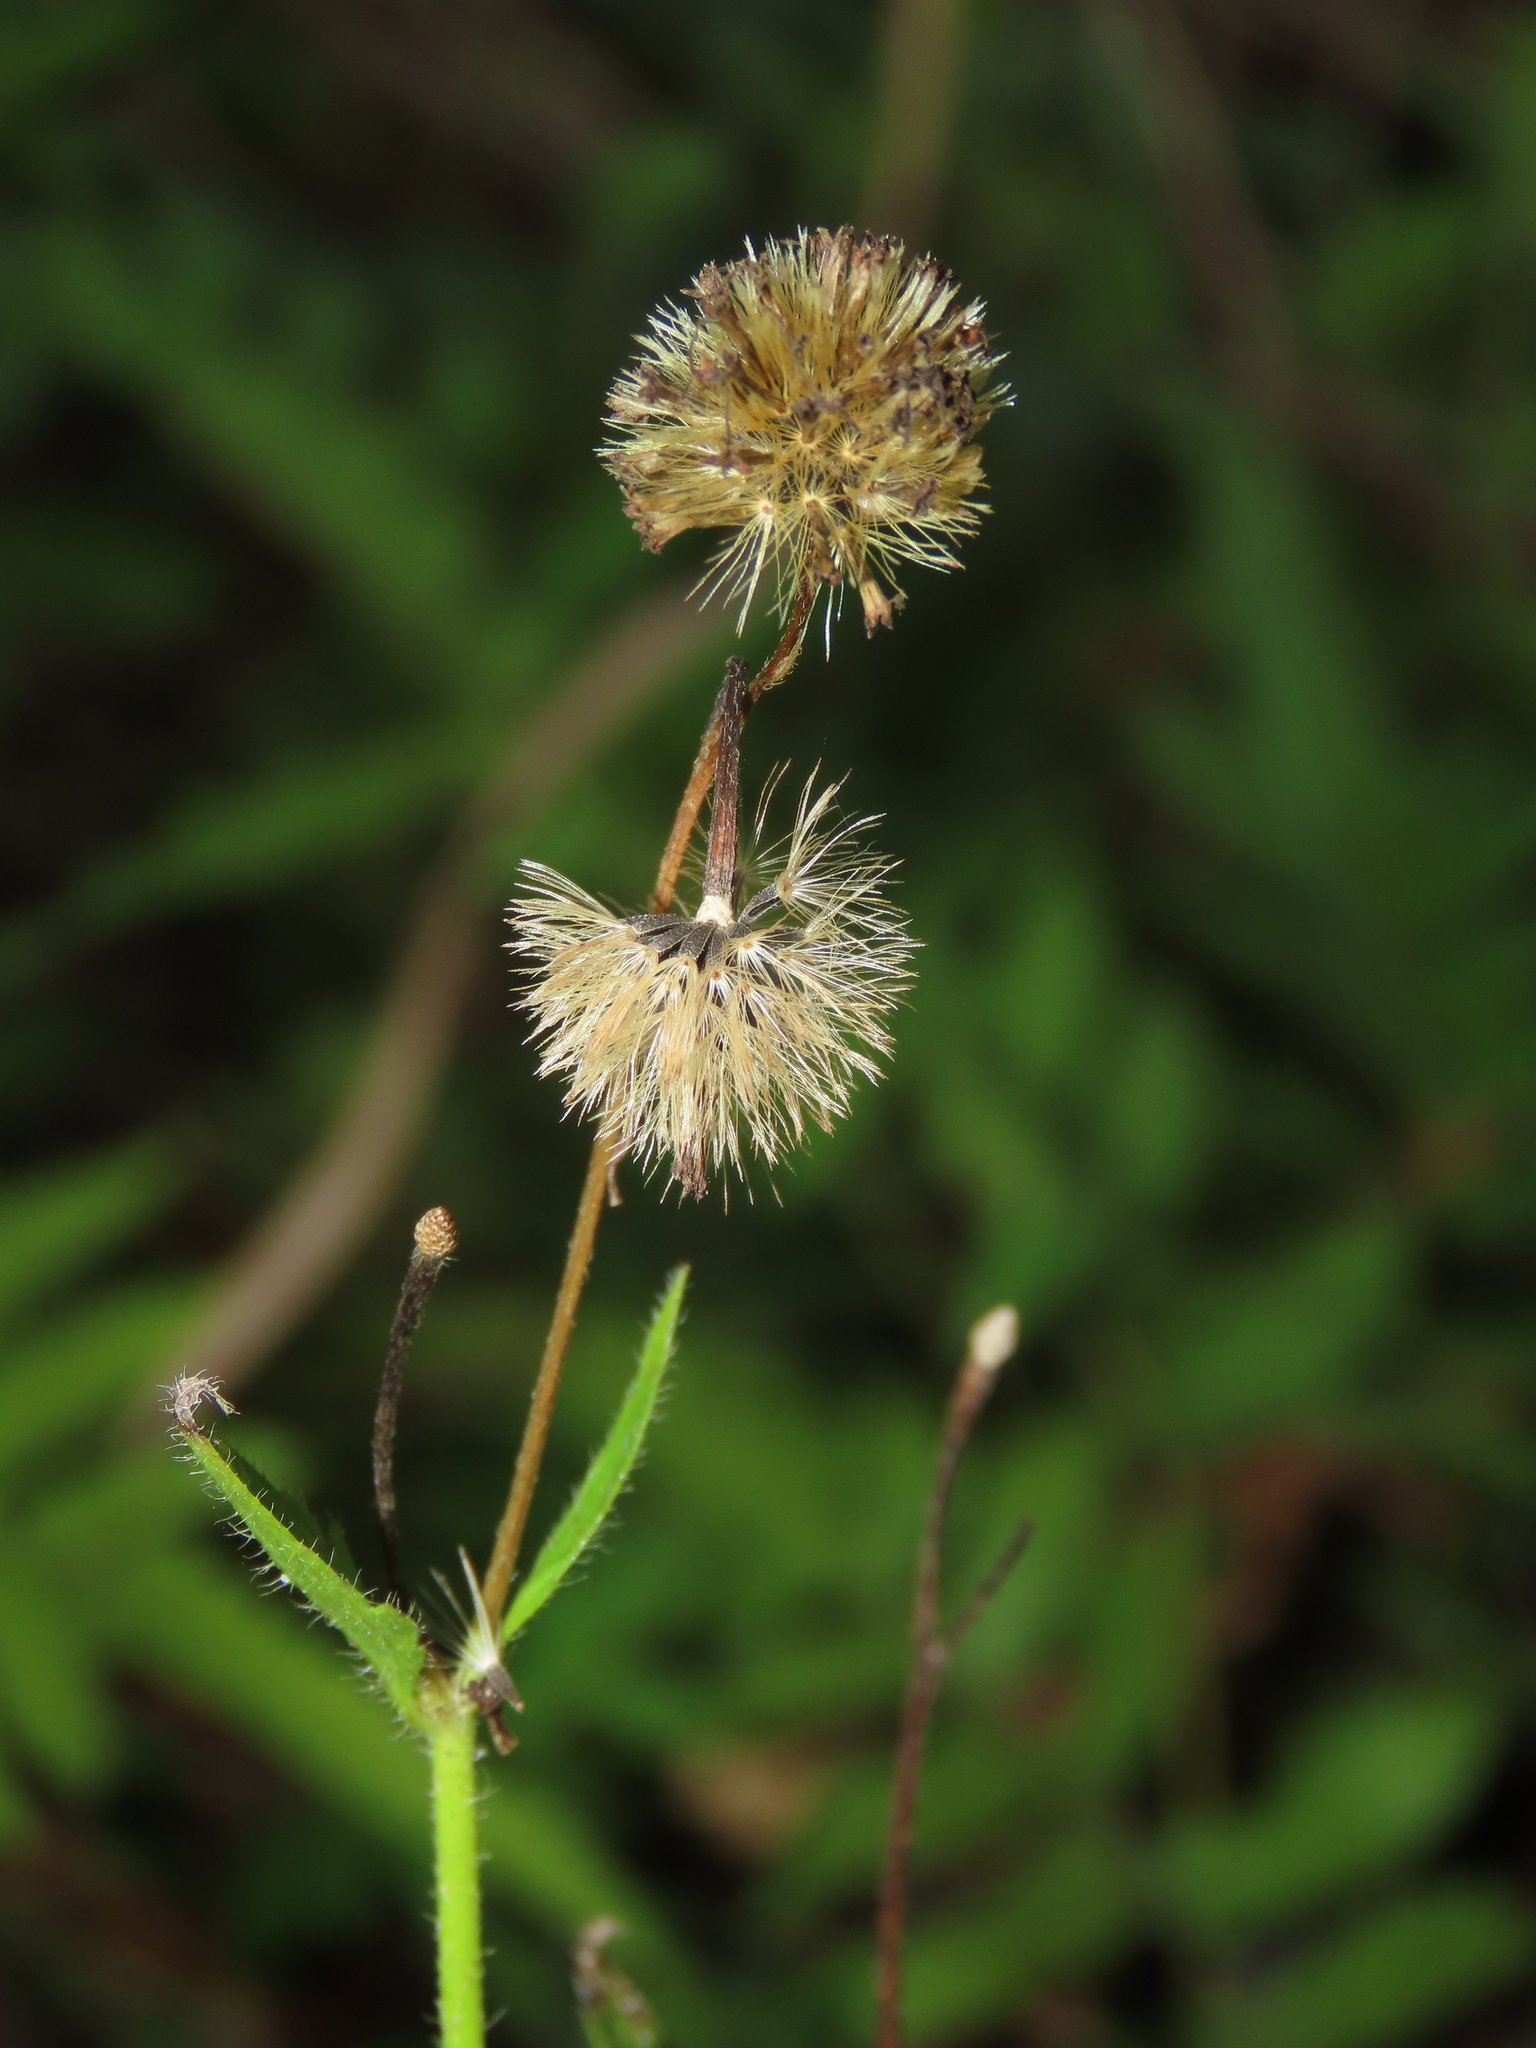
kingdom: Plantae
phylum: Tracheophyta
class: Magnoliopsida
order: Asterales
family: Asteraceae
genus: Praxelis
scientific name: Praxelis clematidea
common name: Praxelis
